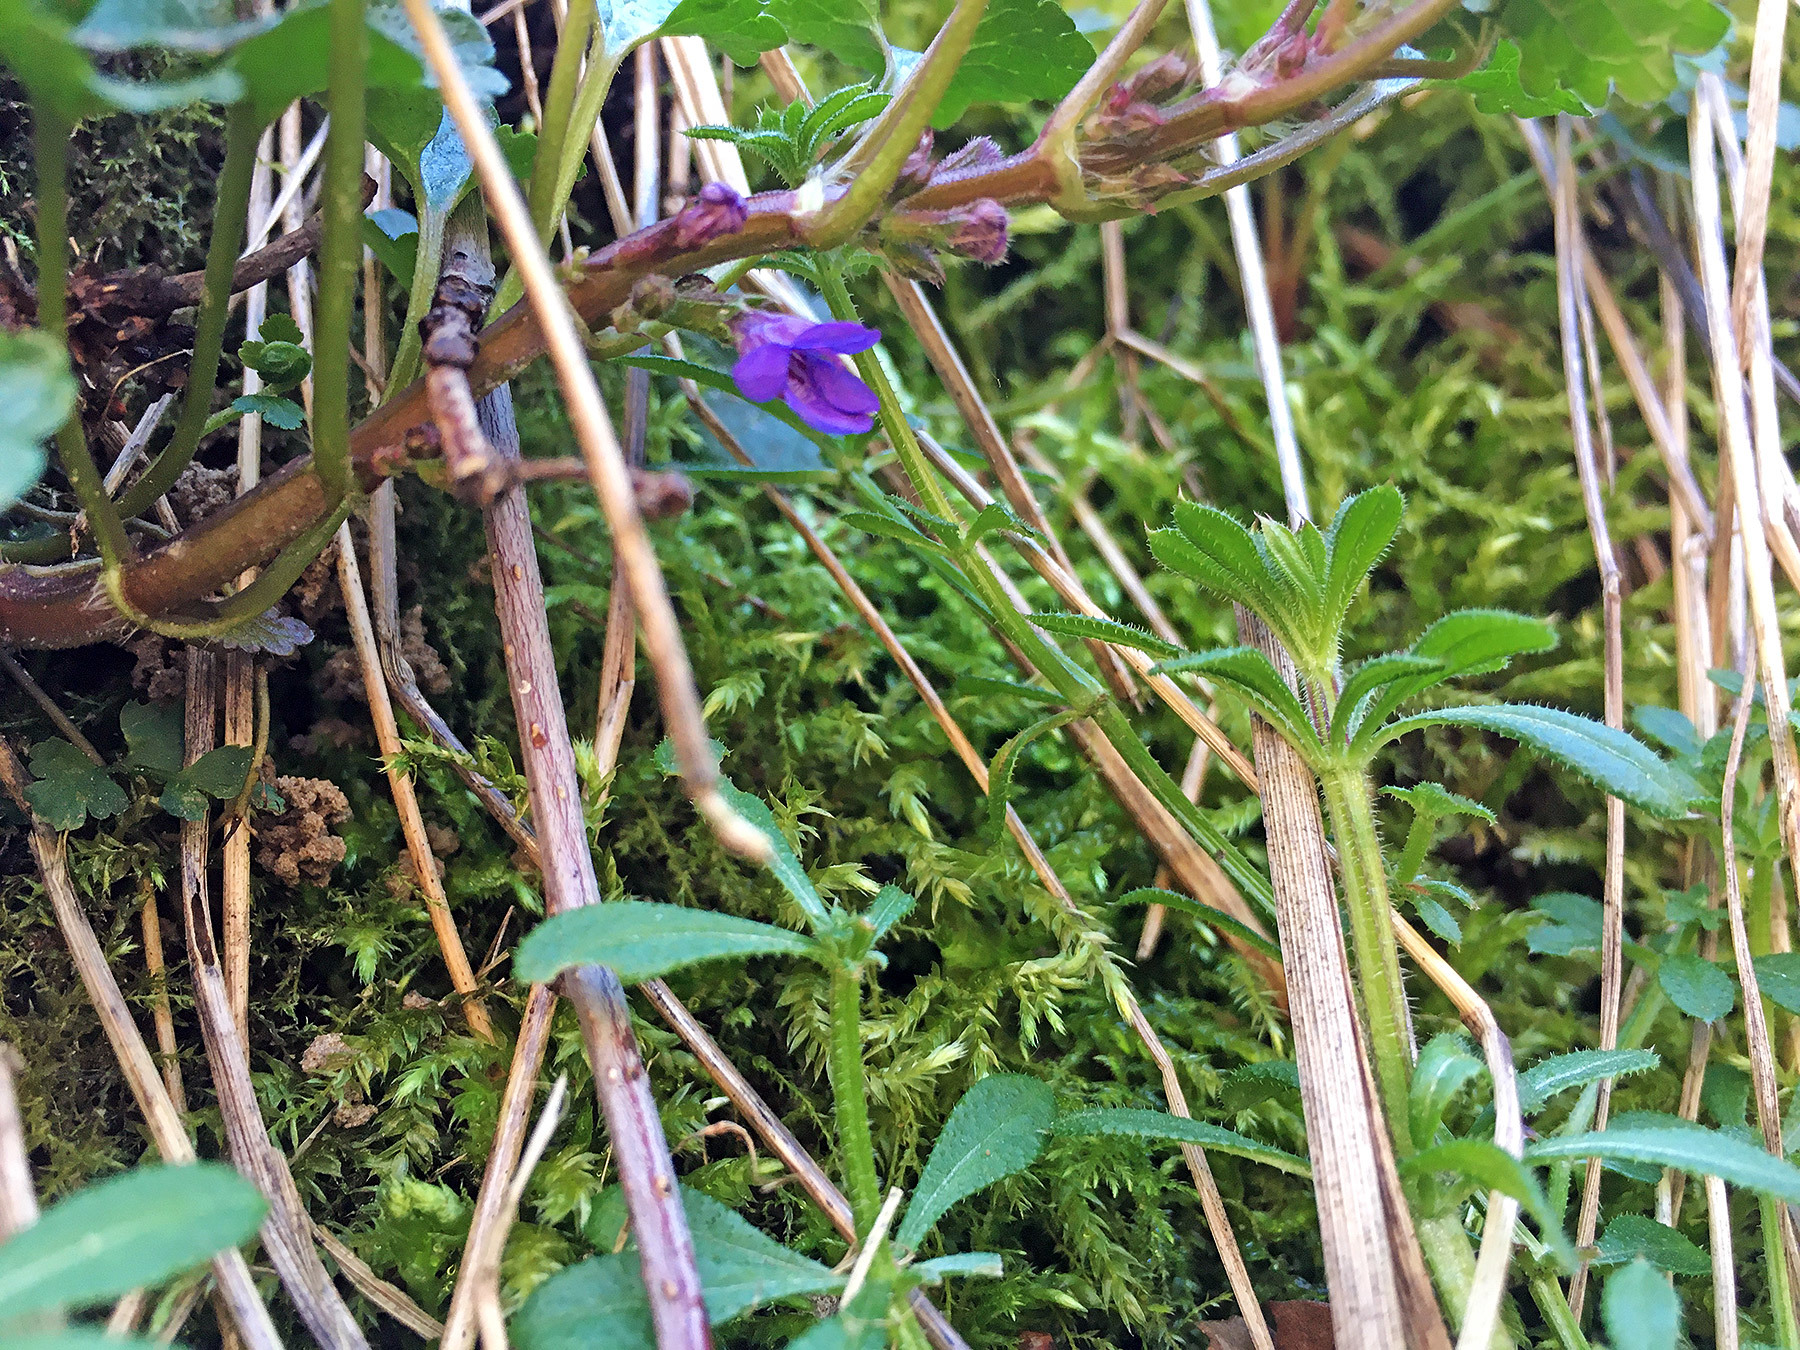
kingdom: Plantae
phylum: Tracheophyta
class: Magnoliopsida
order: Lamiales
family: Lamiaceae
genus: Glechoma
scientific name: Glechoma hederacea
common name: Ground ivy
